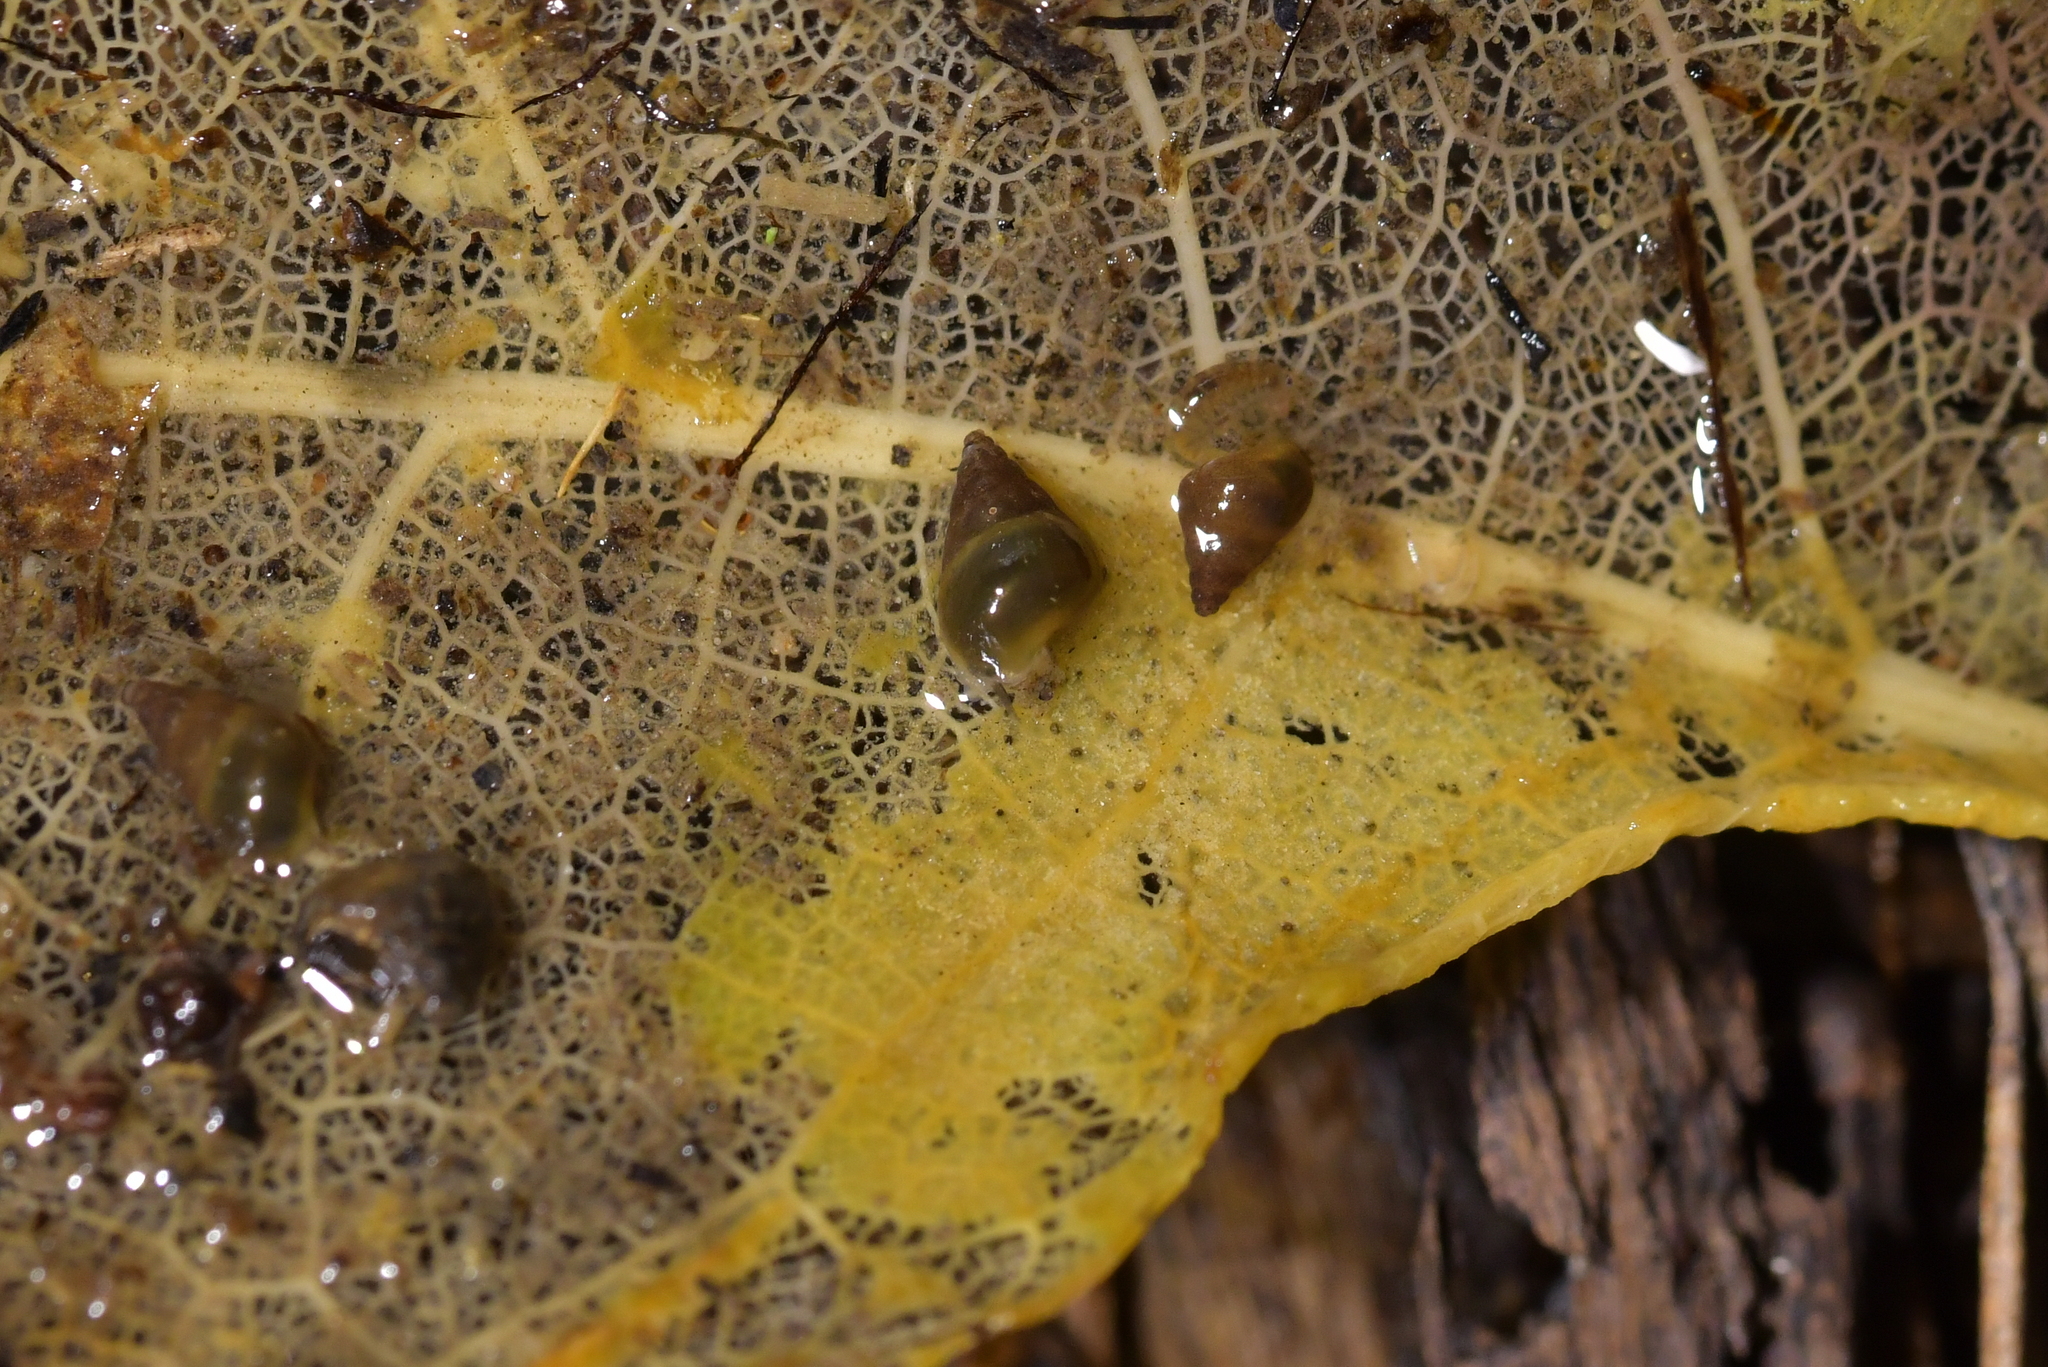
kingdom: Animalia
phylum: Mollusca
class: Gastropoda
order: Littorinimorpha
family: Tateidae
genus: Potamopyrgus
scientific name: Potamopyrgus antipodarum
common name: Jenkins' spire snail
